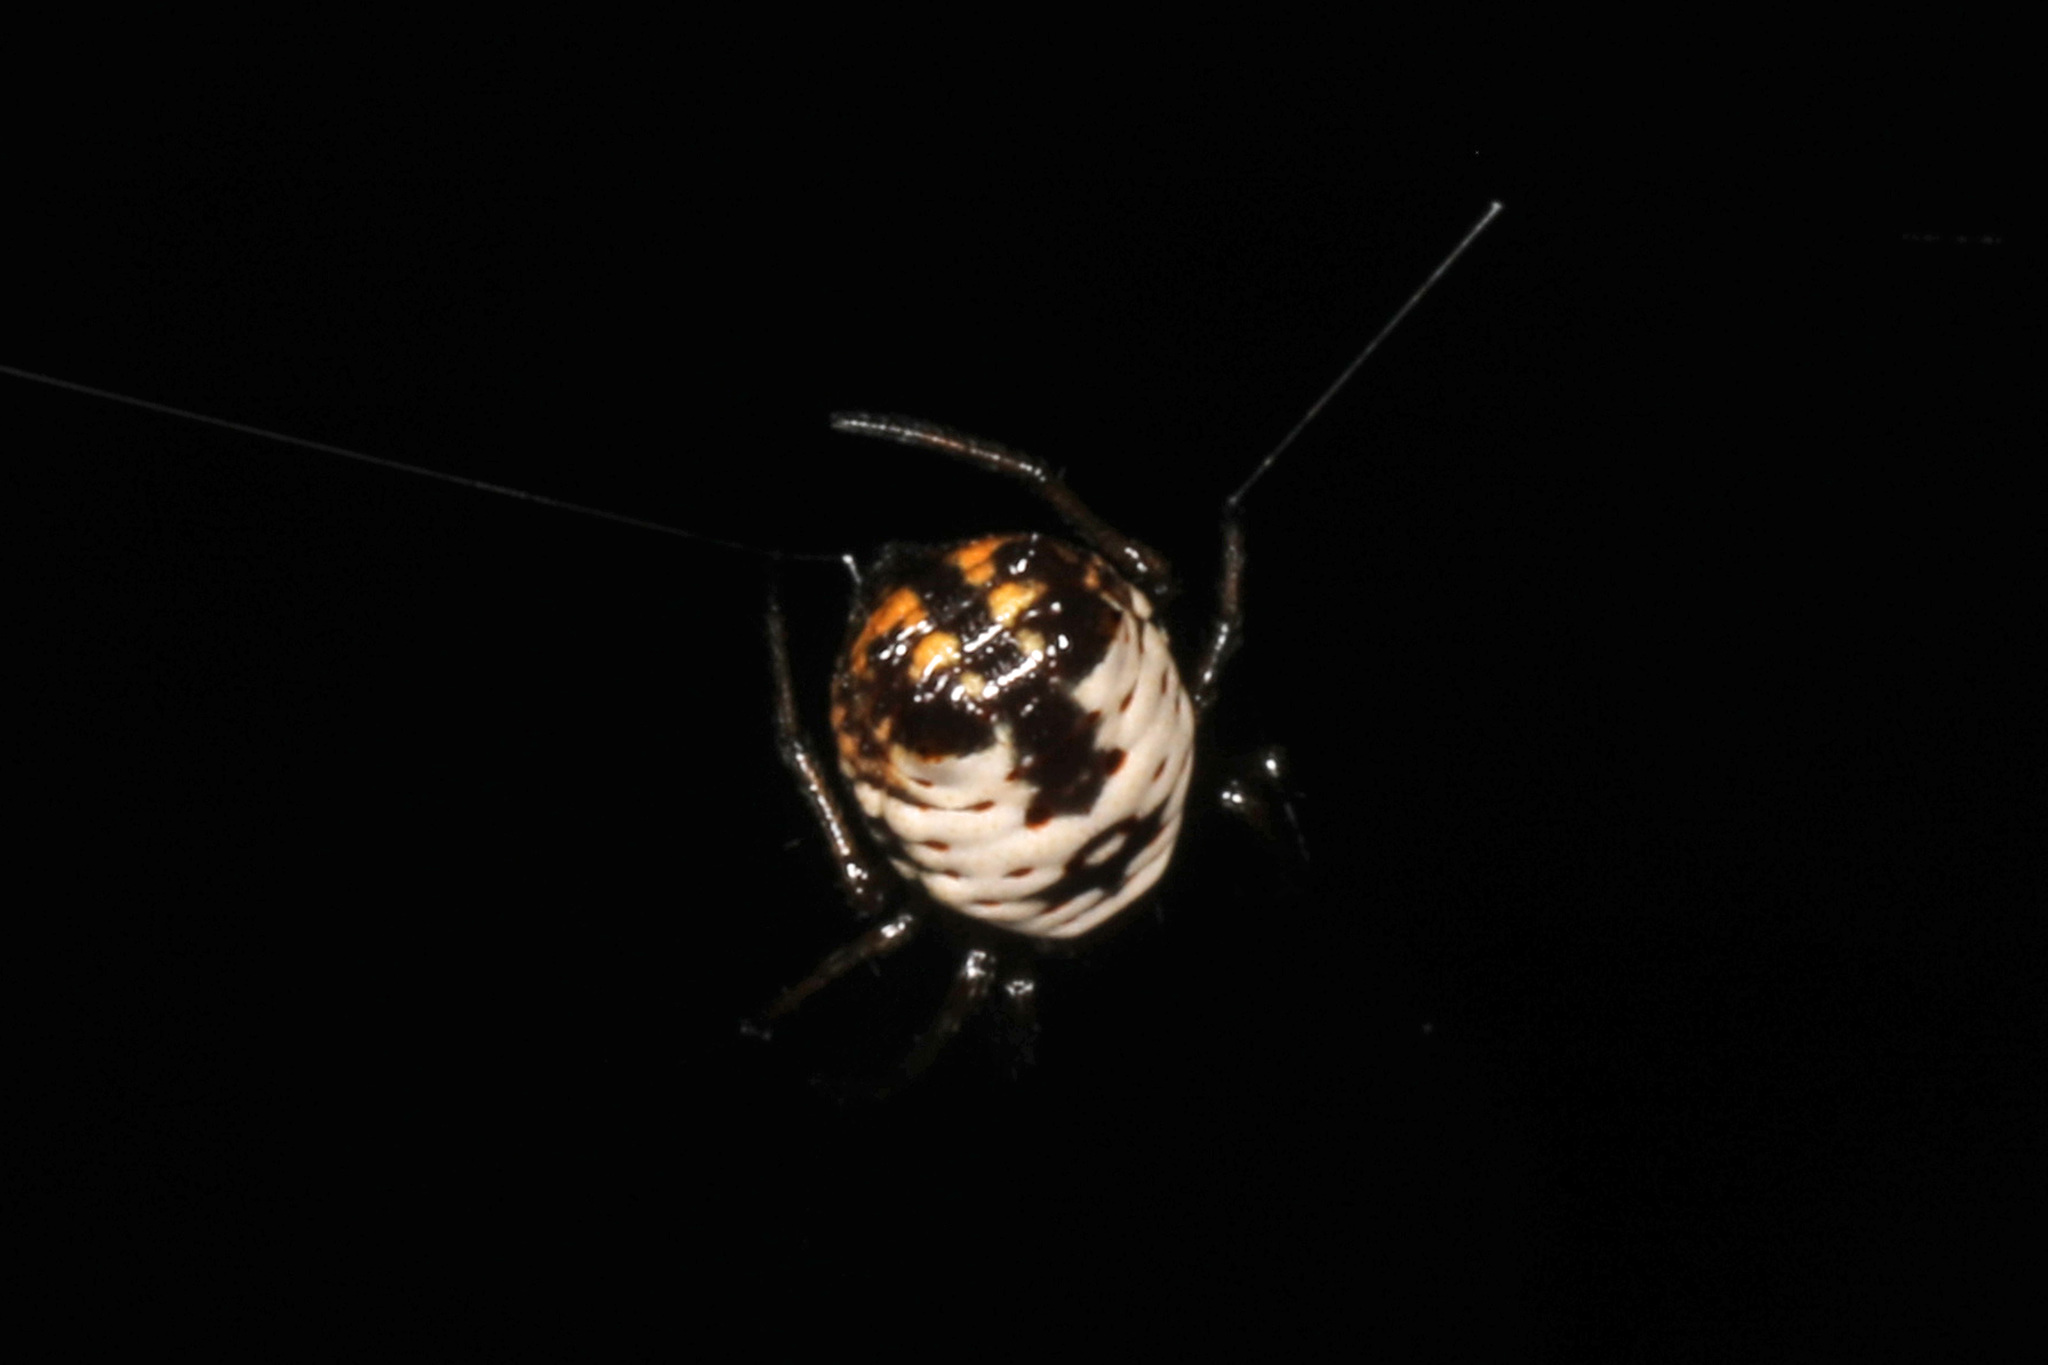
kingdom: Animalia
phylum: Arthropoda
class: Arachnida
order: Araneae
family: Araneidae
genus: Micrathena
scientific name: Micrathena mitrata
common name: Orb weavers
